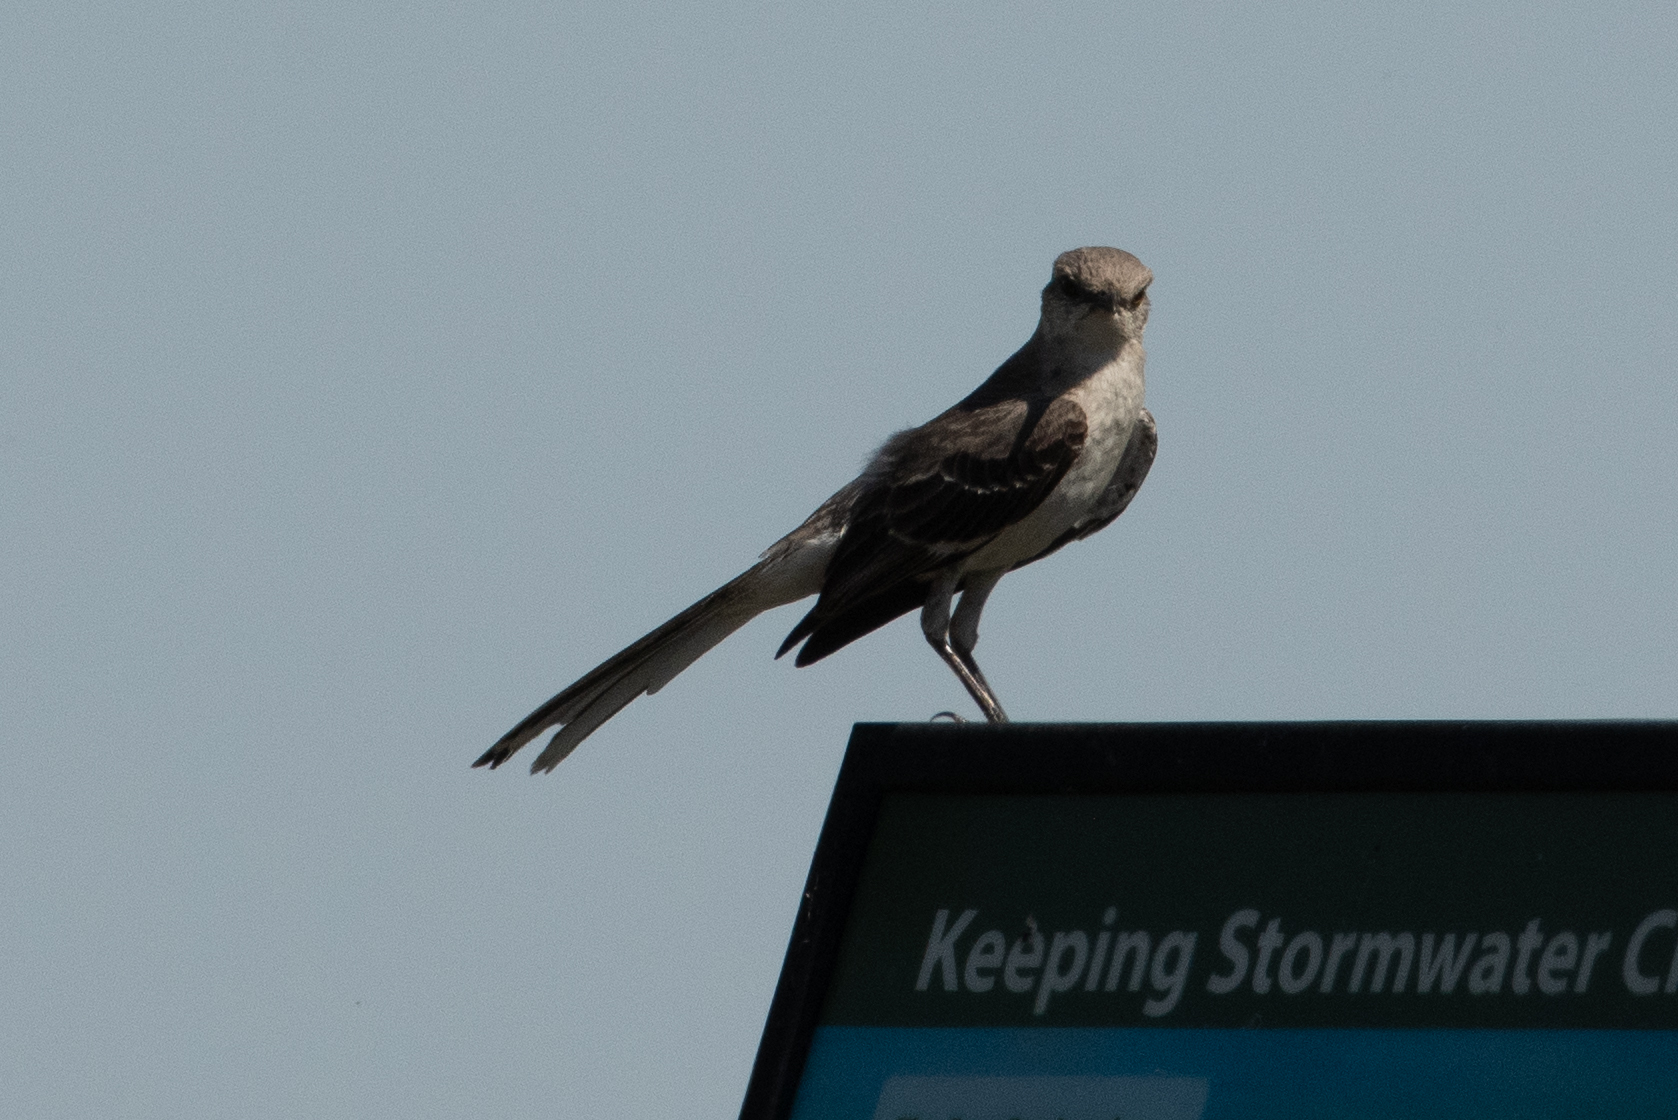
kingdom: Animalia
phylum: Chordata
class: Aves
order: Passeriformes
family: Mimidae
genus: Mimus
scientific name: Mimus polyglottos
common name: Northern mockingbird
